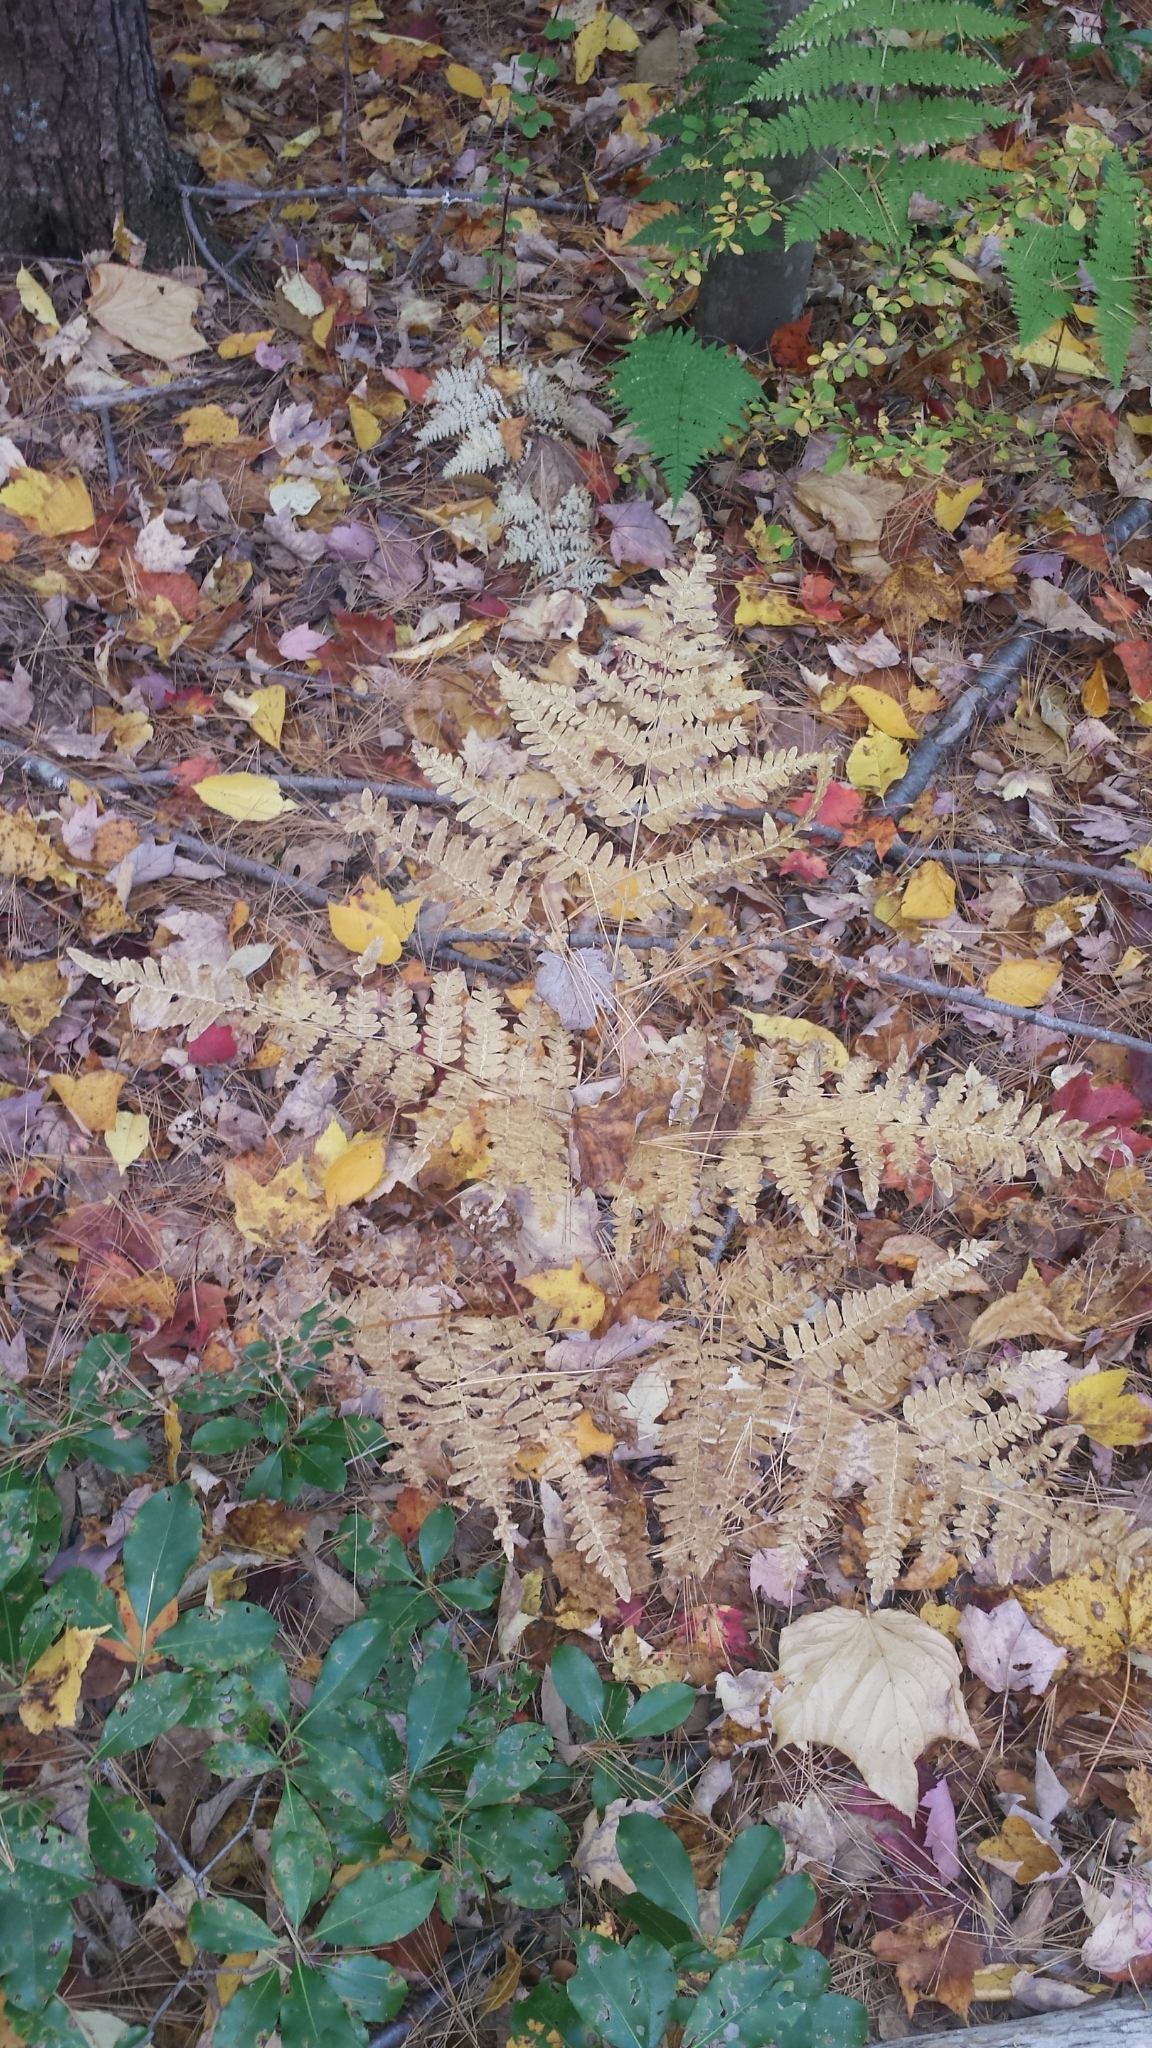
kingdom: Plantae
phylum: Tracheophyta
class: Polypodiopsida
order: Polypodiales
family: Dennstaedtiaceae
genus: Pteridium
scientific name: Pteridium aquilinum
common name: Bracken
